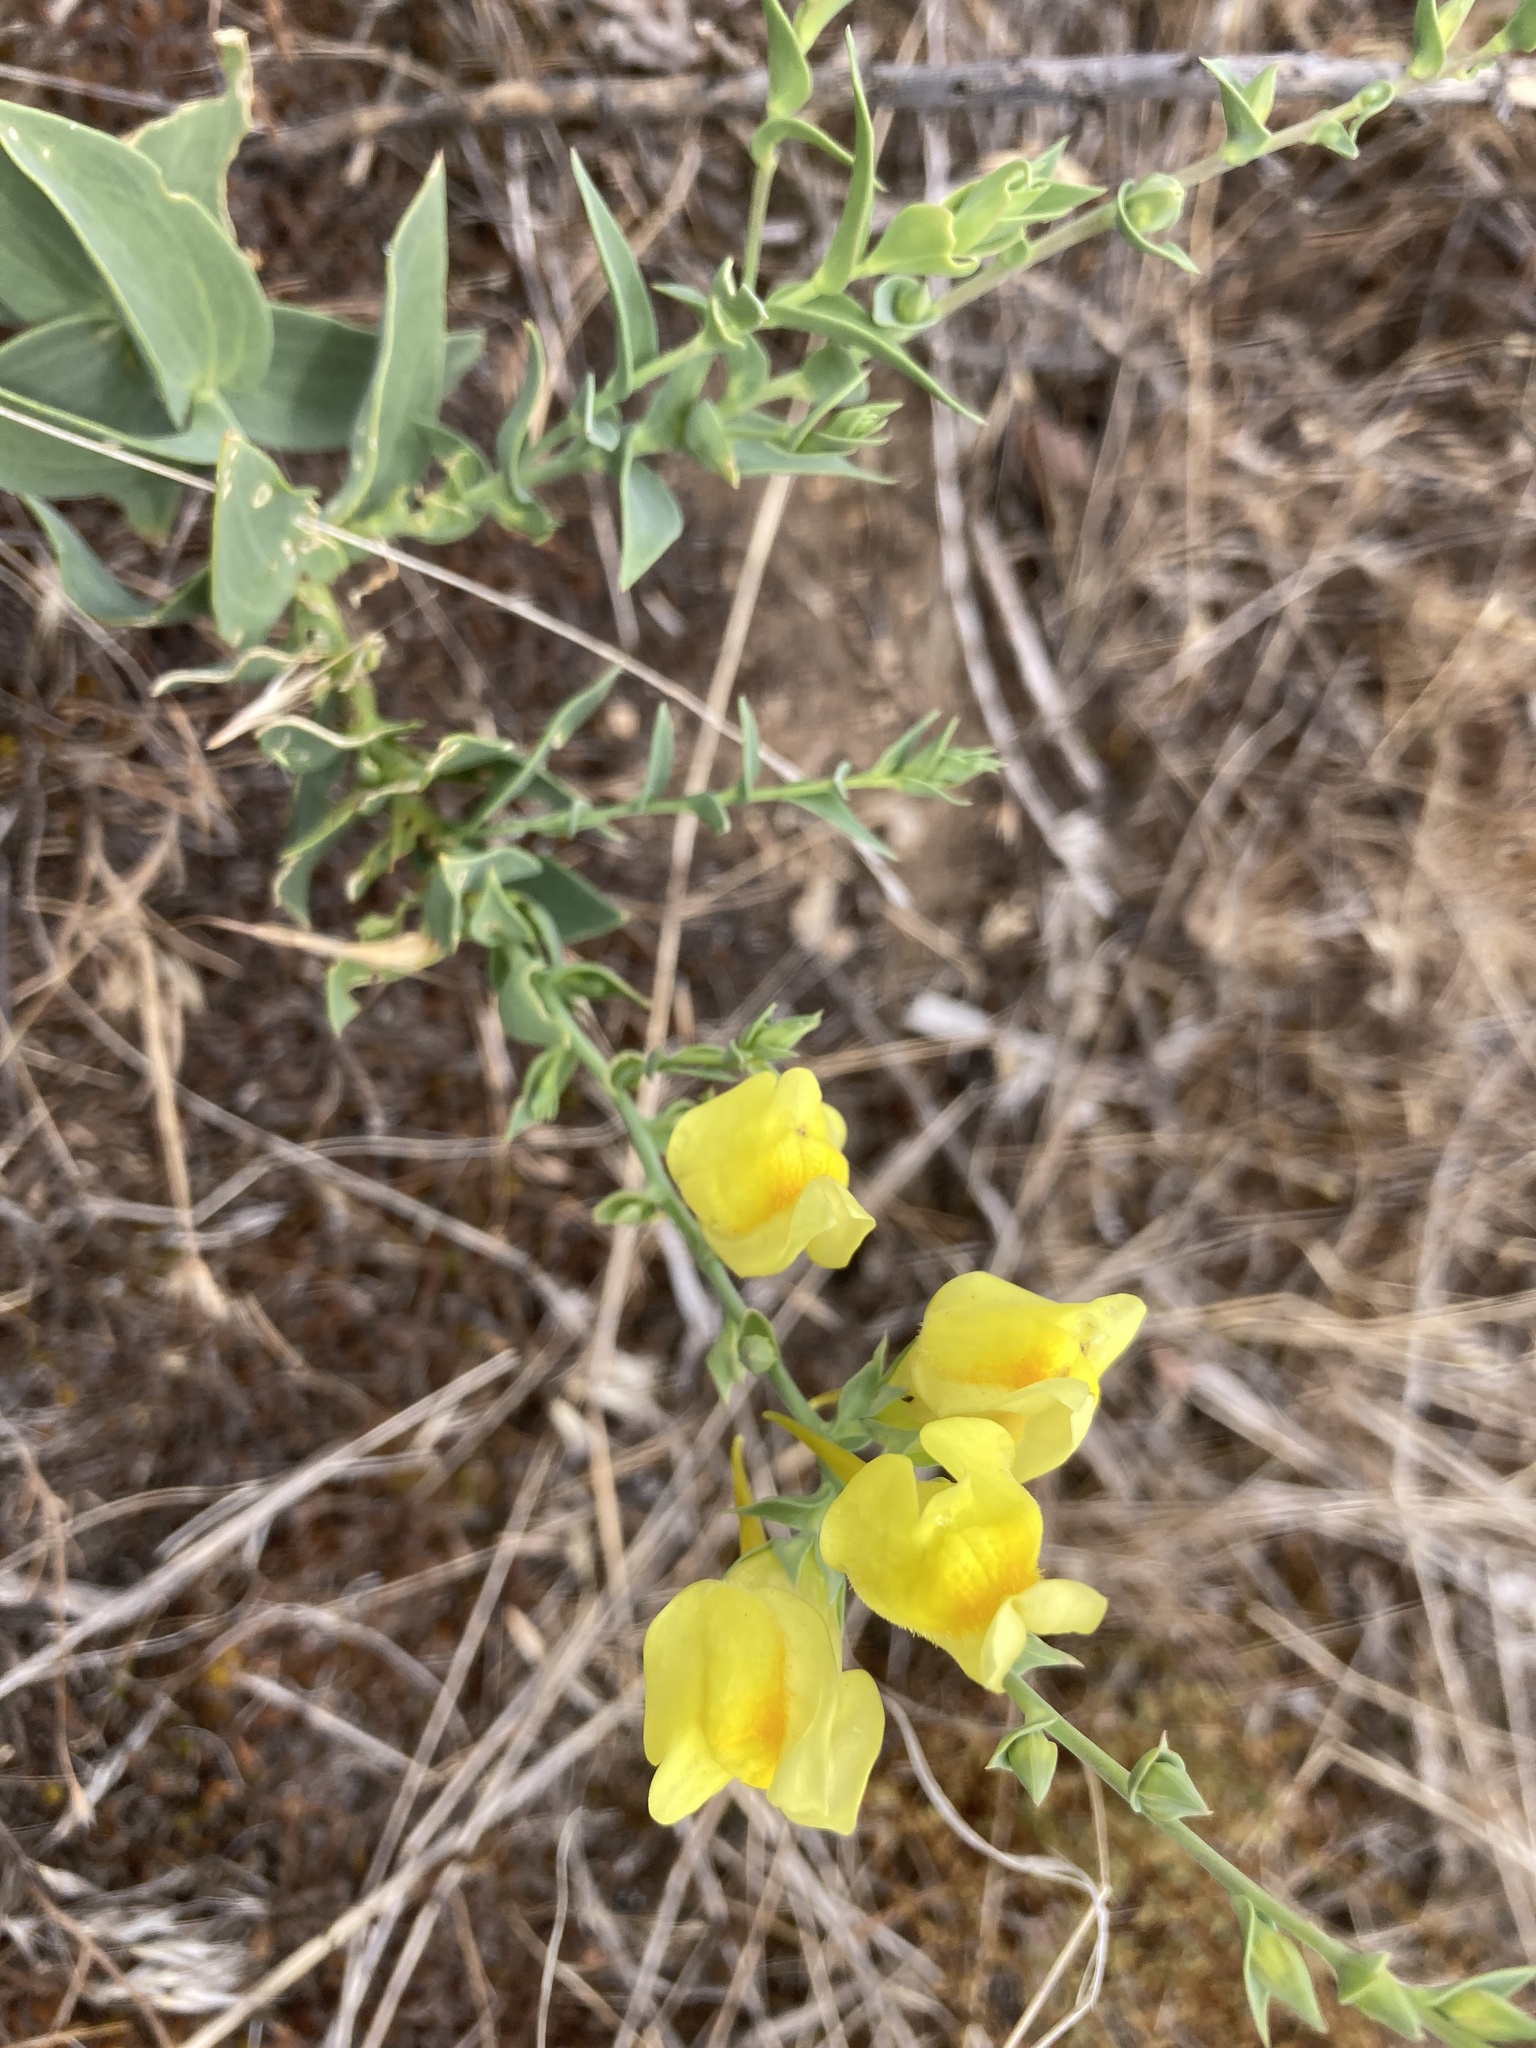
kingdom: Plantae
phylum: Tracheophyta
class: Magnoliopsida
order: Lamiales
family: Plantaginaceae
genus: Linaria
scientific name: Linaria dalmatica
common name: Dalmatian toadflax
